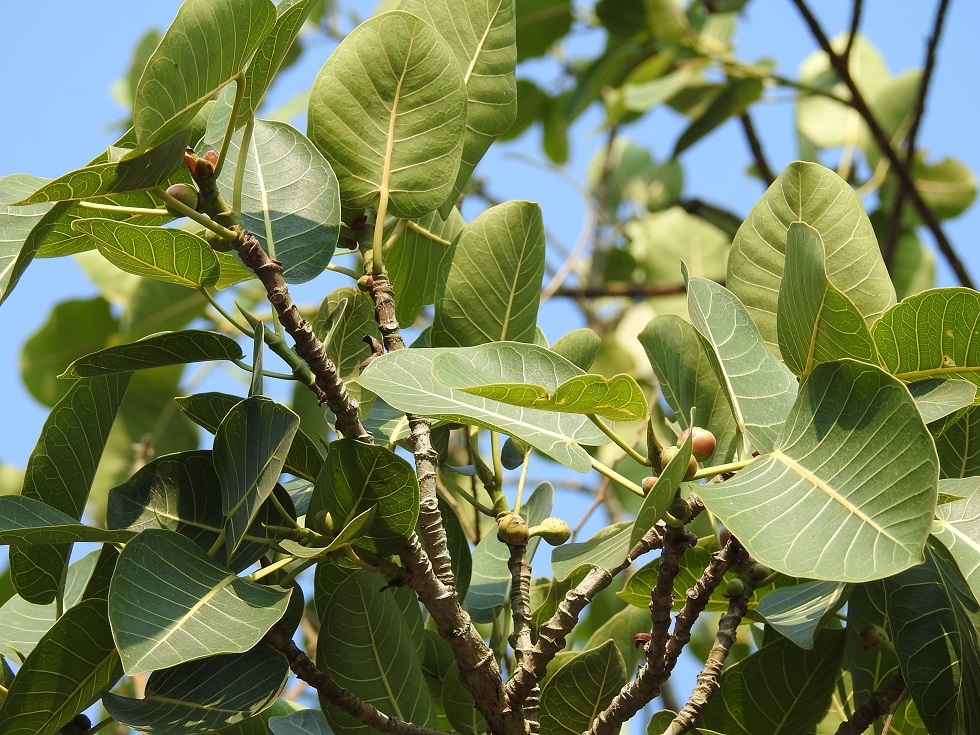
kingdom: Plantae
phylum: Tracheophyta
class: Magnoliopsida
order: Rosales
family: Moraceae
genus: Ficus
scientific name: Ficus aurea
